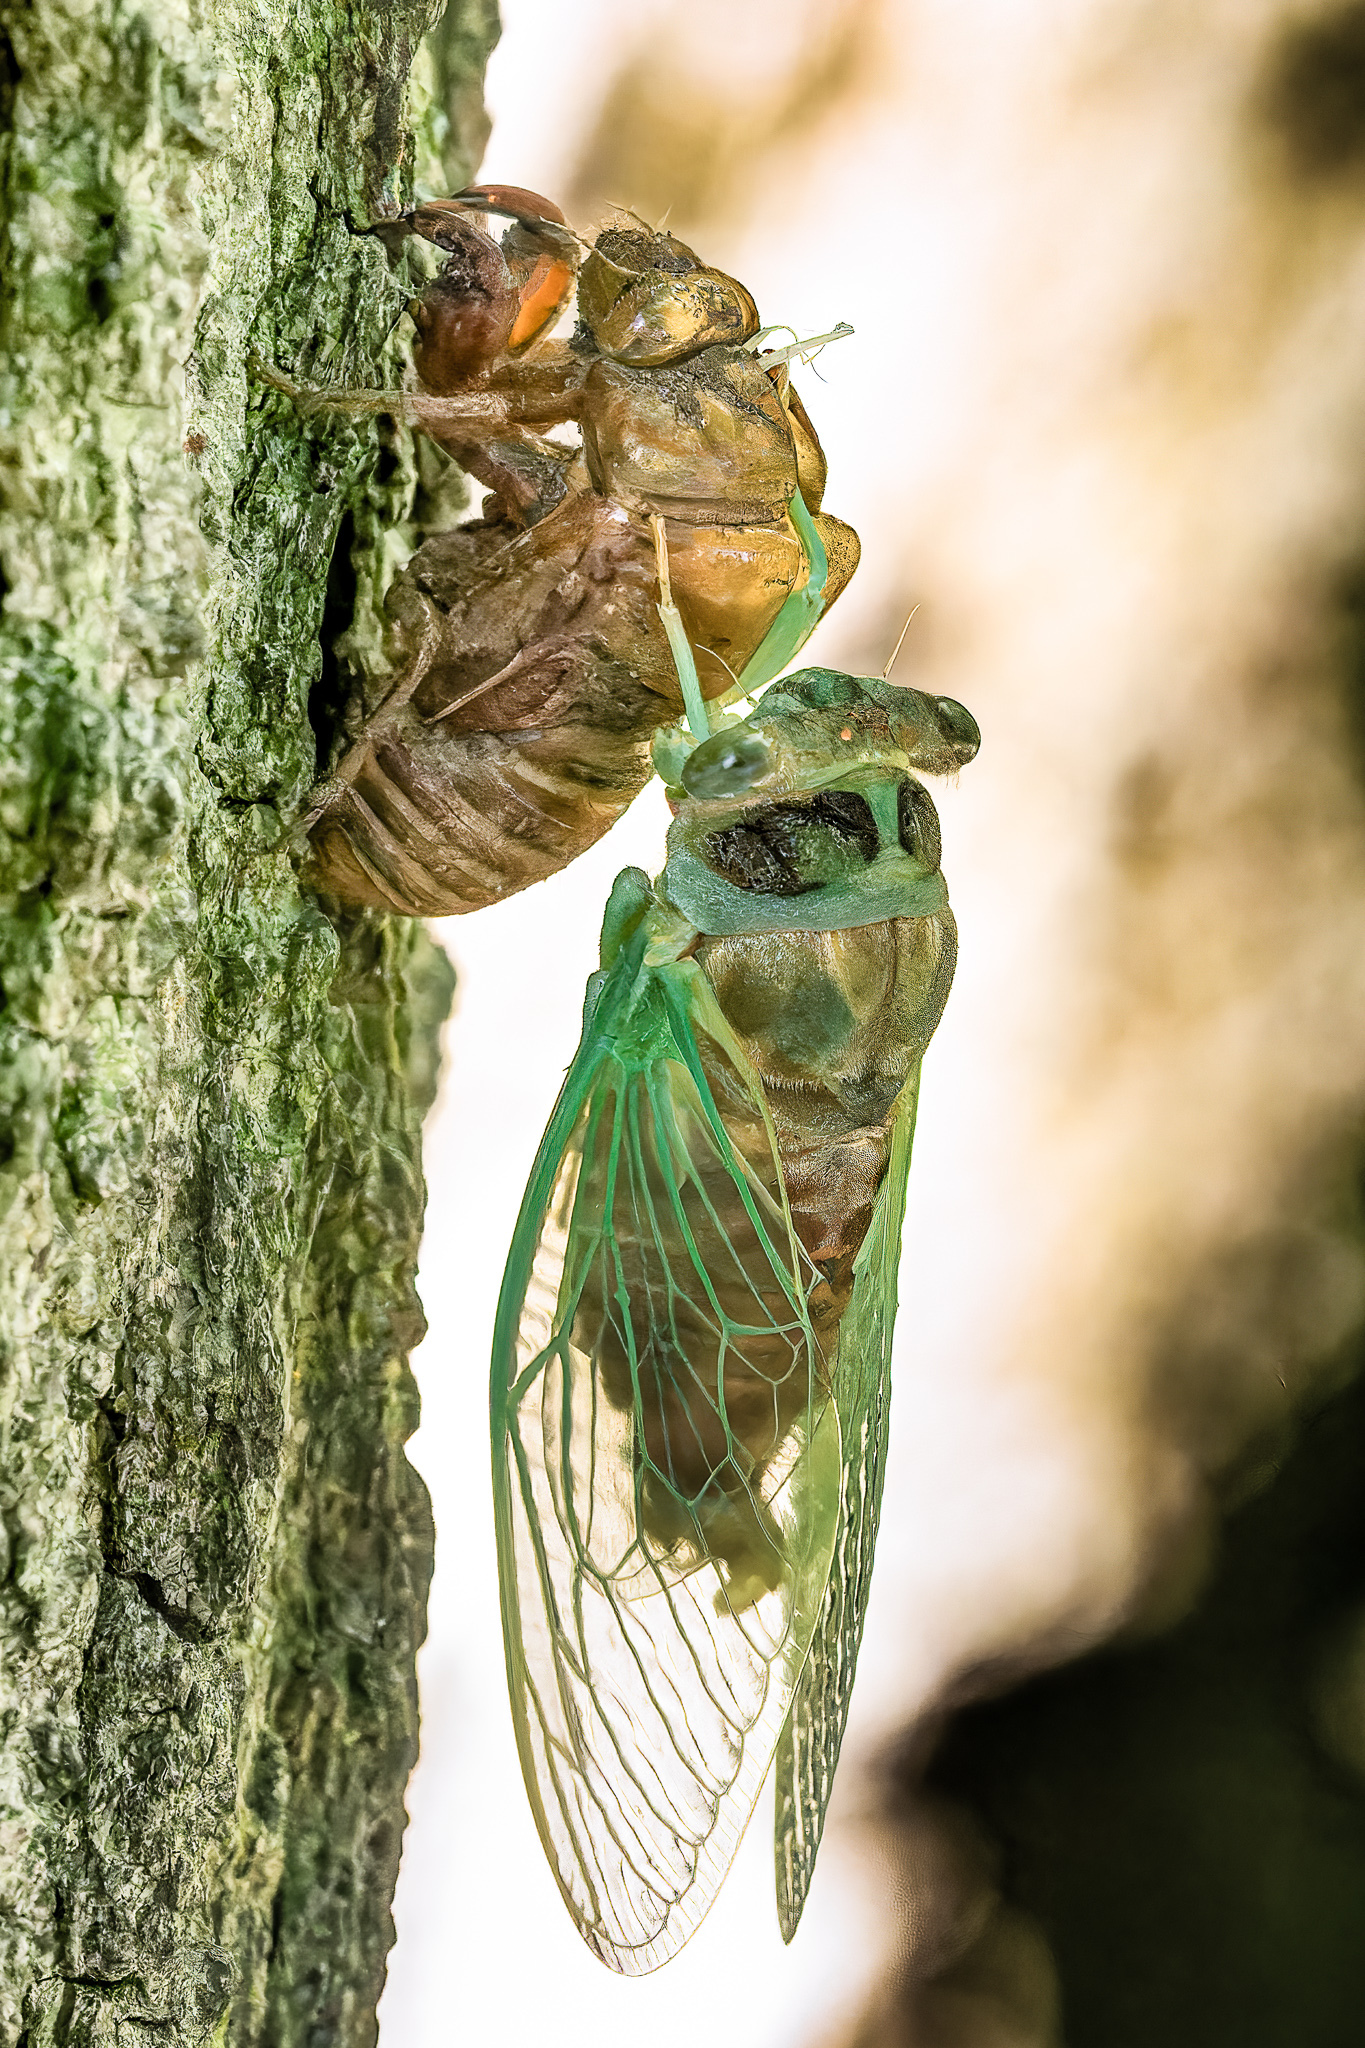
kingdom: Animalia
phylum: Arthropoda
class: Insecta
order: Hemiptera
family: Cicadidae
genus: Neotibicen
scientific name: Neotibicen canicularis
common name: God-day cicada
